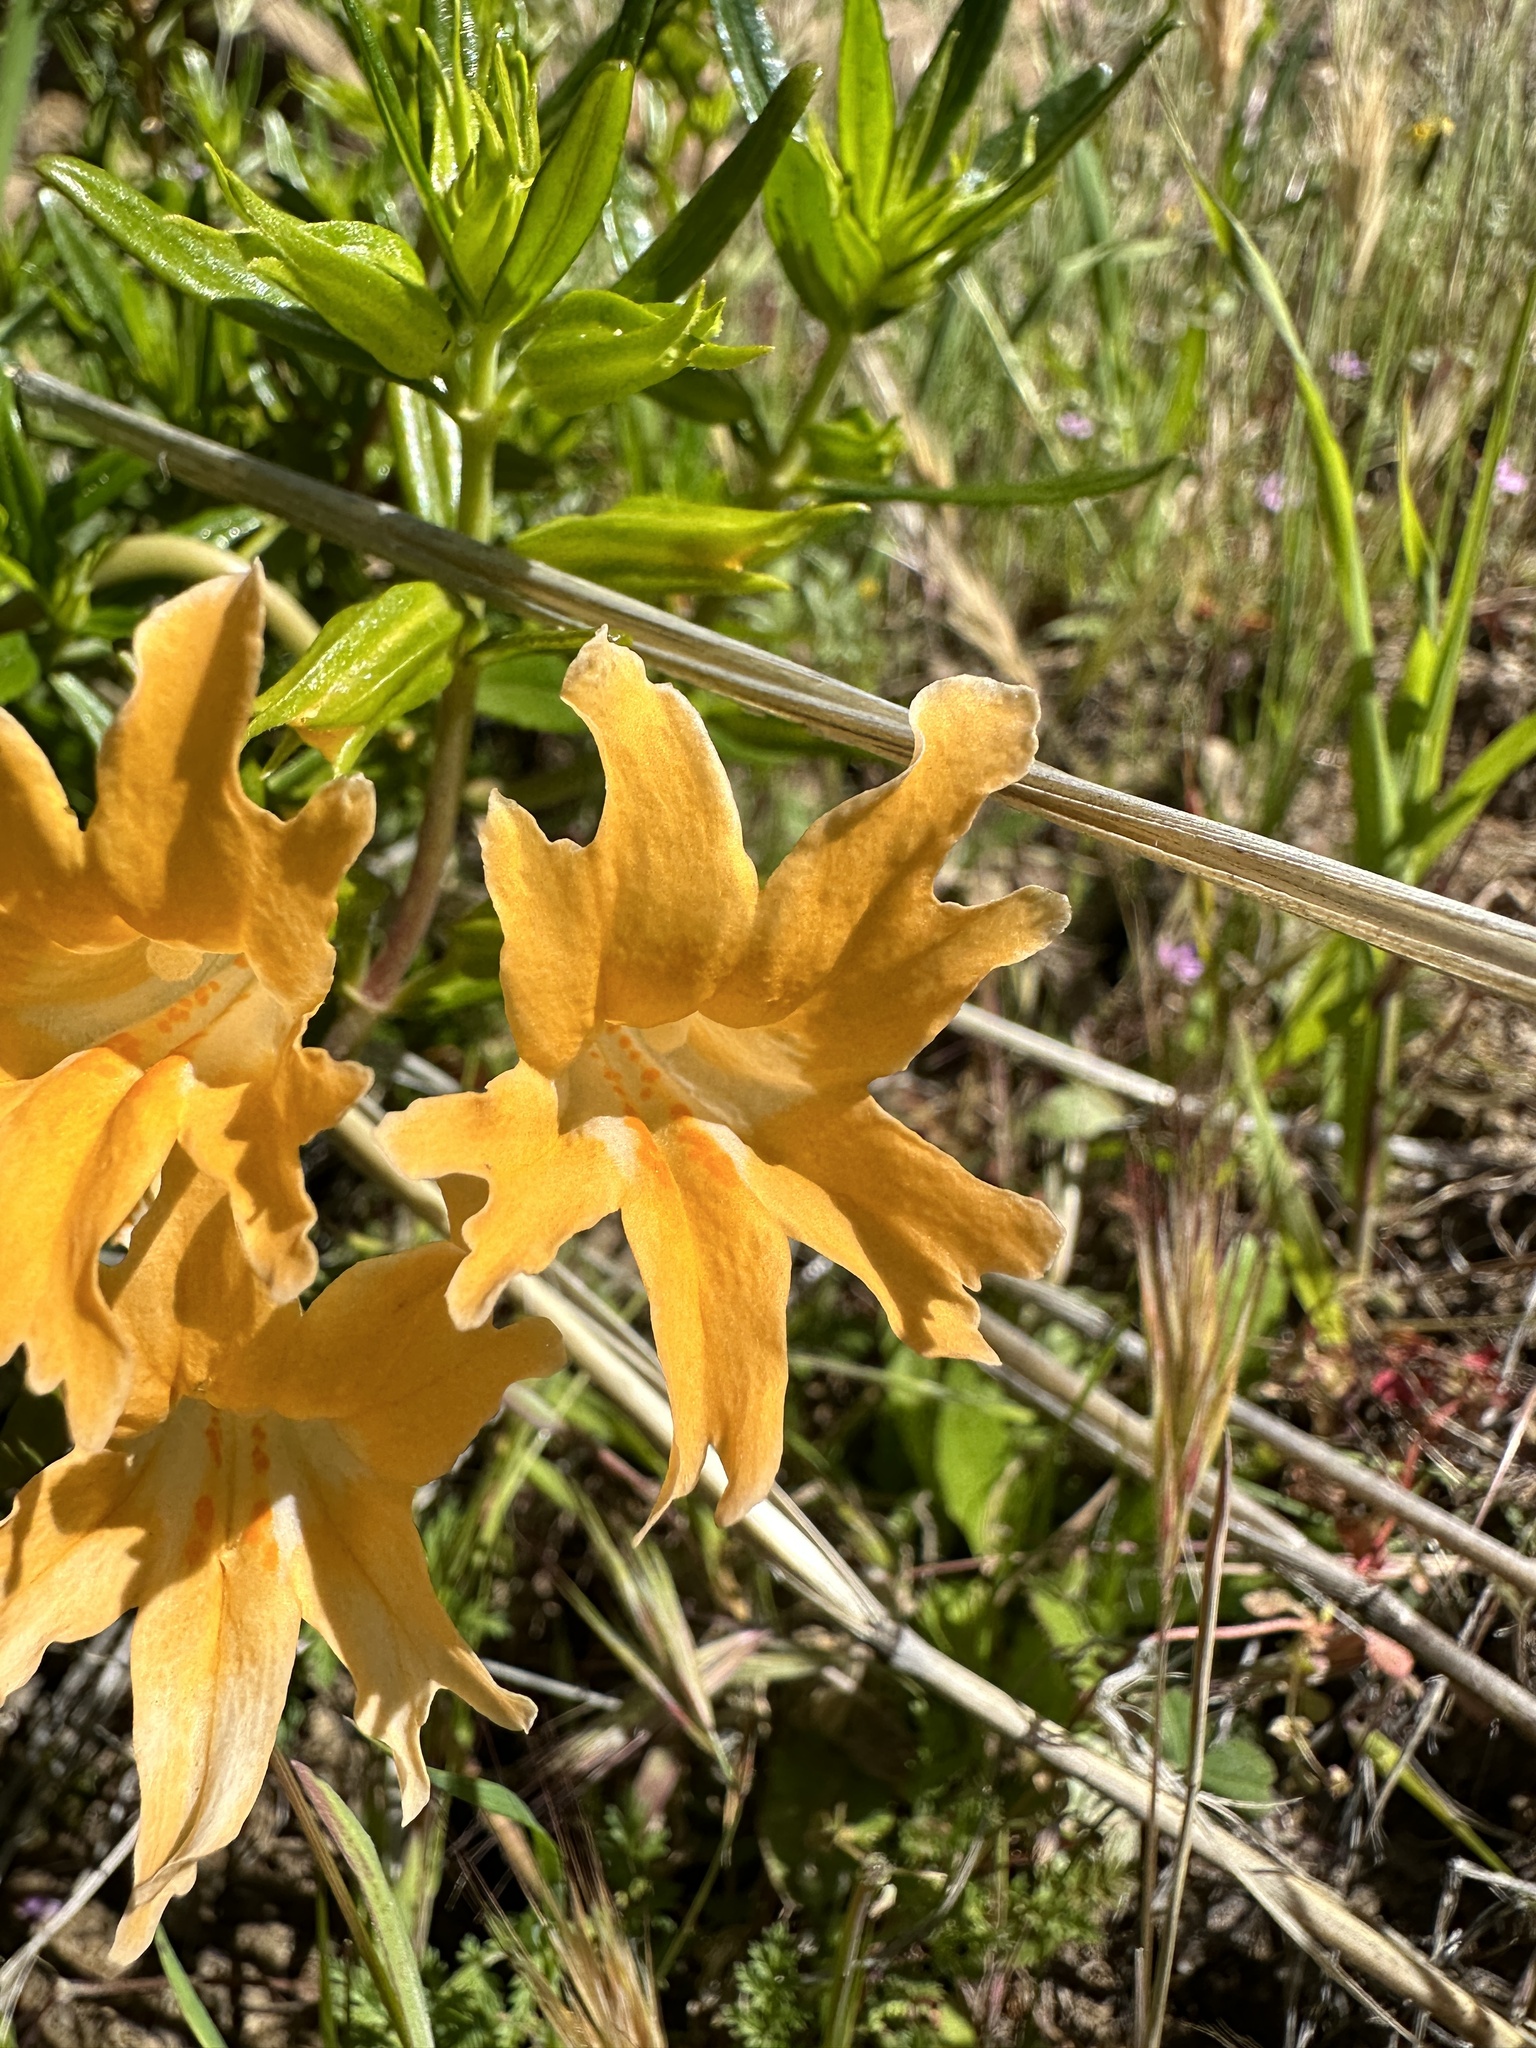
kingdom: Plantae
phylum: Tracheophyta
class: Magnoliopsida
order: Lamiales
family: Phrymaceae
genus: Diplacus
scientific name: Diplacus linearis
